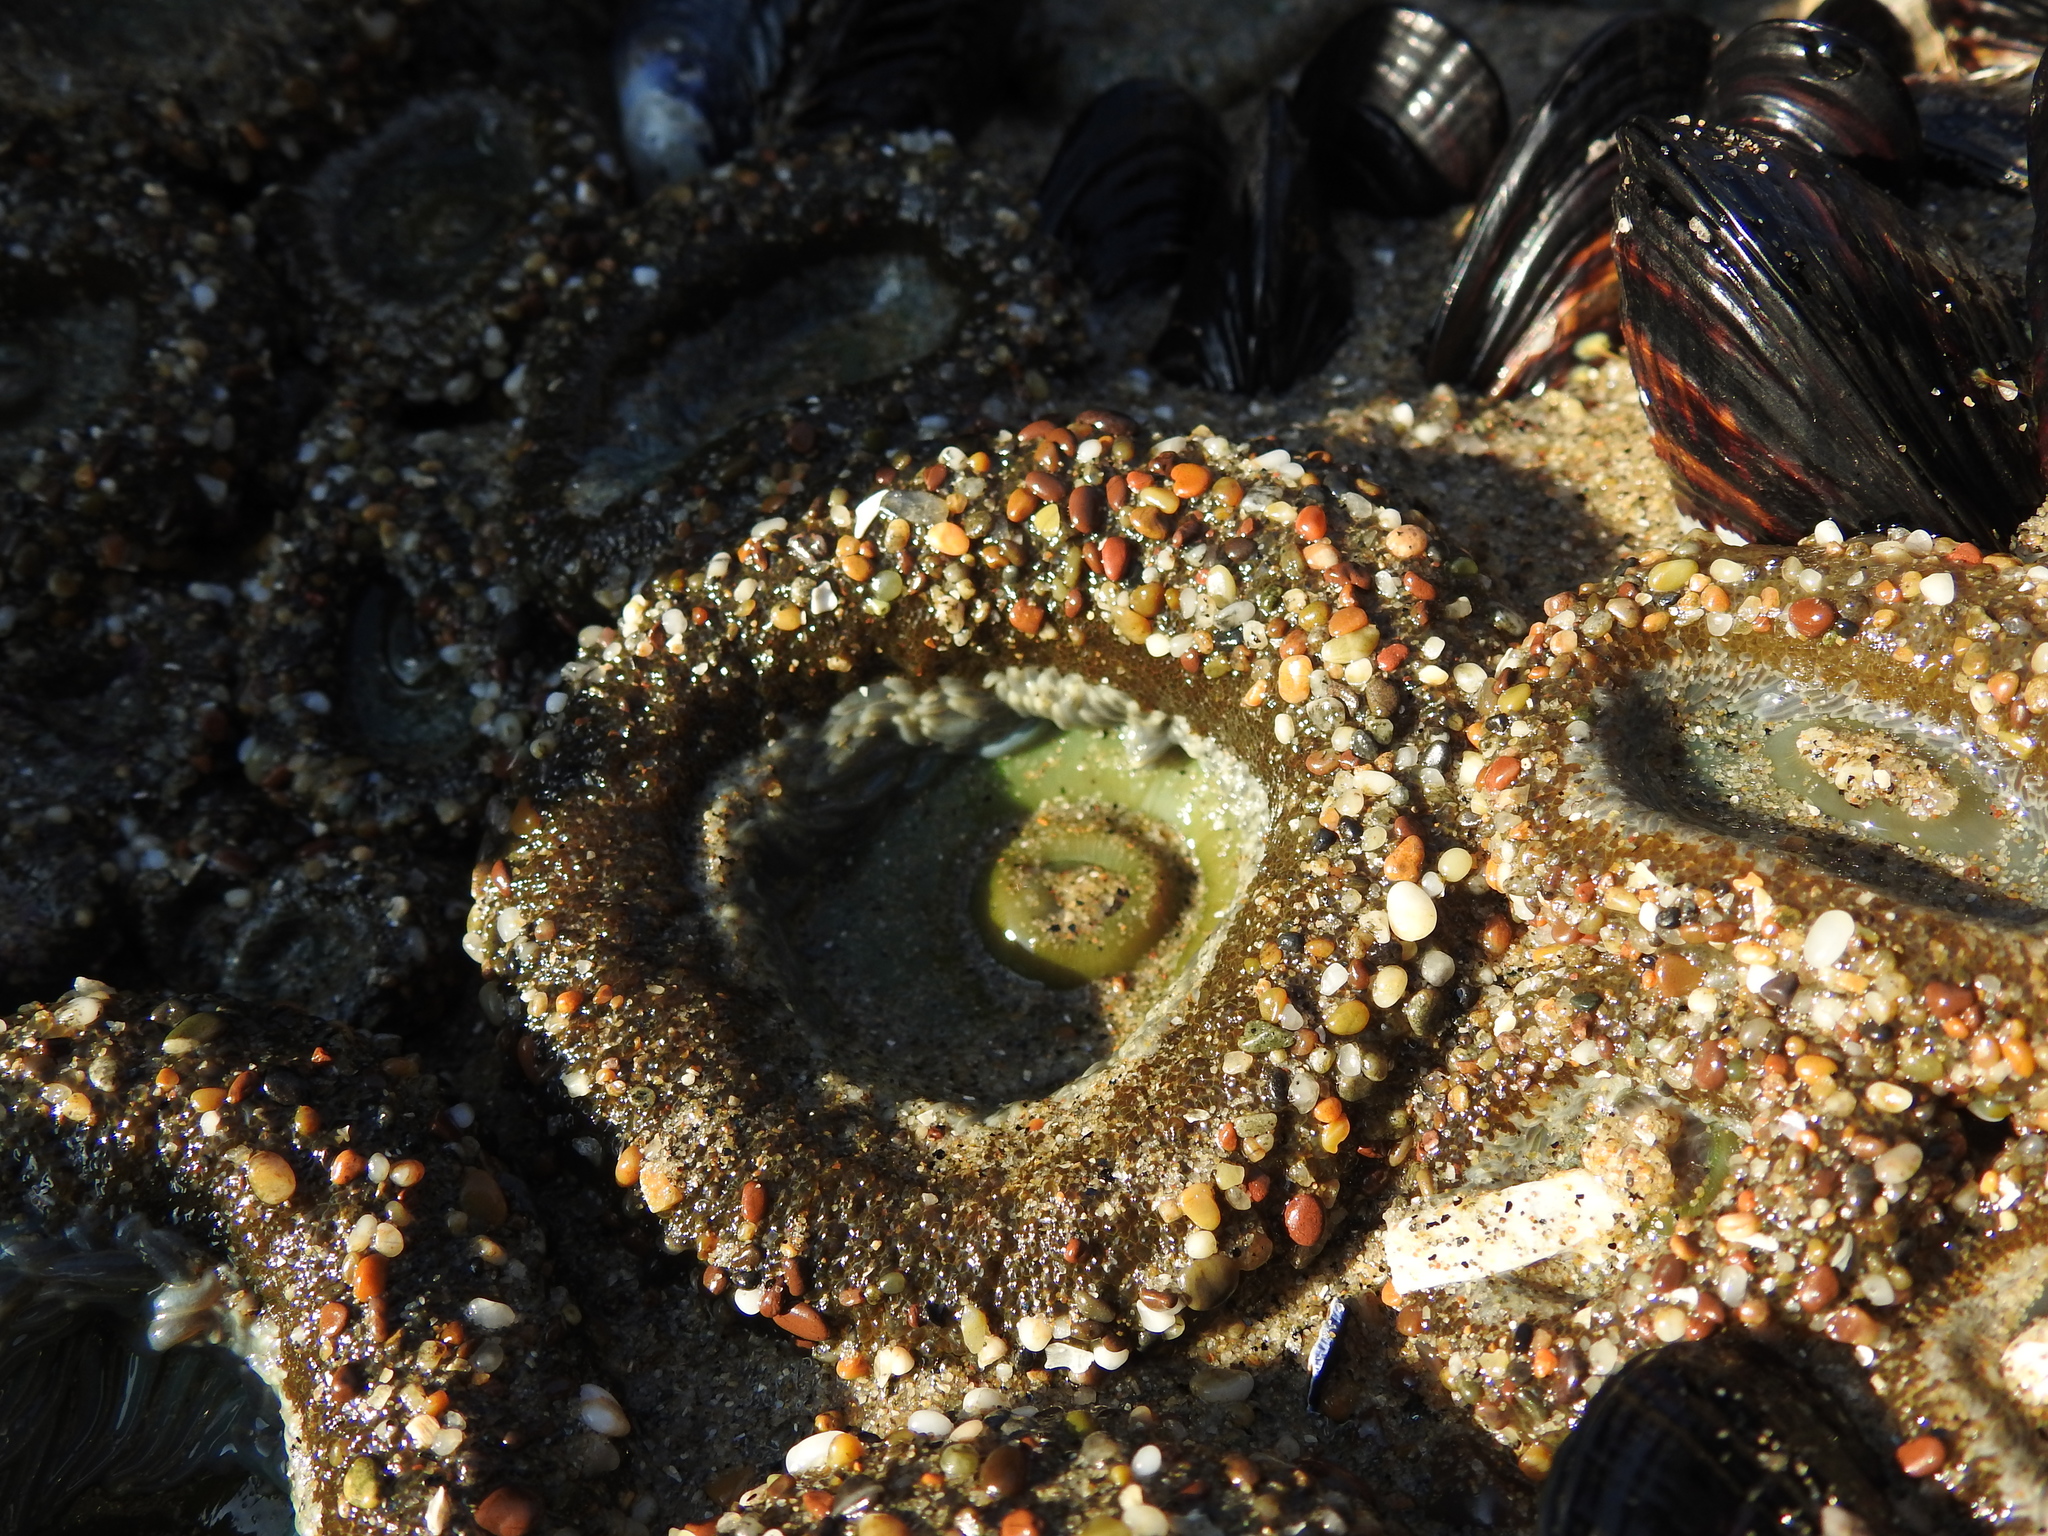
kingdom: Animalia
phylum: Cnidaria
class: Anthozoa
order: Actiniaria
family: Actiniidae
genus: Anthopleura
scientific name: Anthopleura xanthogrammica
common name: Giant green anemone
